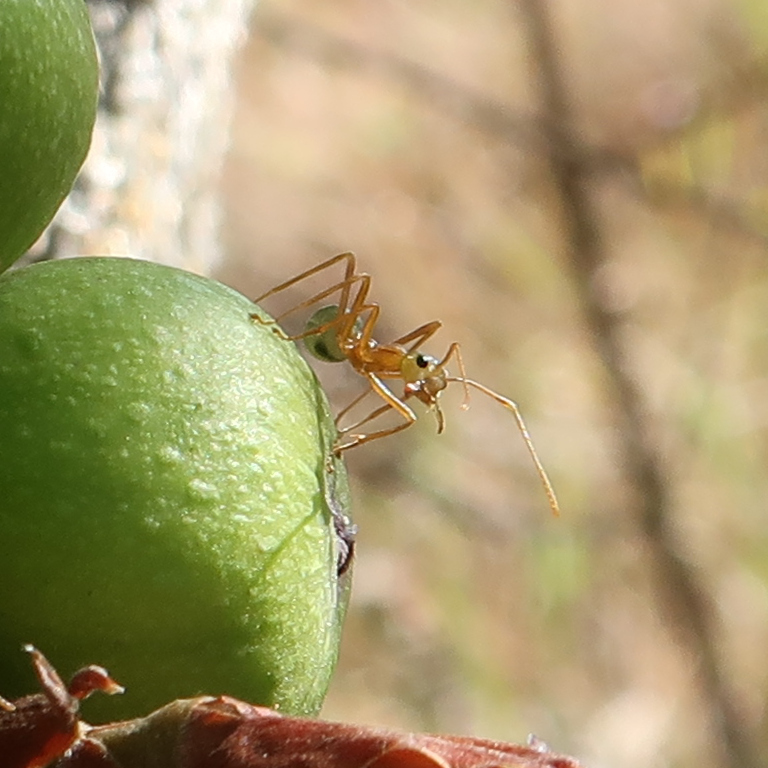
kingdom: Animalia
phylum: Arthropoda
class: Insecta
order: Hymenoptera
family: Formicidae
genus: Oecophylla
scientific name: Oecophylla smaragdina
